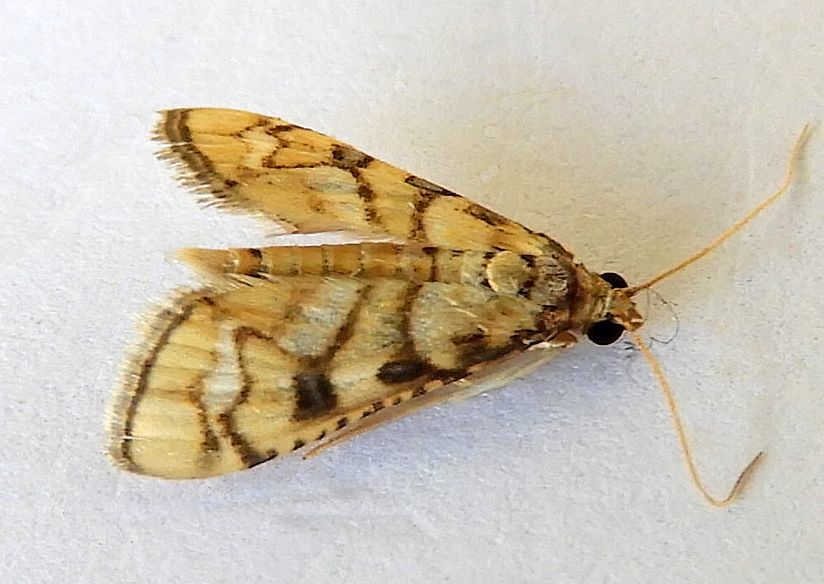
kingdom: Animalia
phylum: Arthropoda
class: Insecta
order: Lepidoptera
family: Crambidae
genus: Hileithia
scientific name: Hileithia magualis
